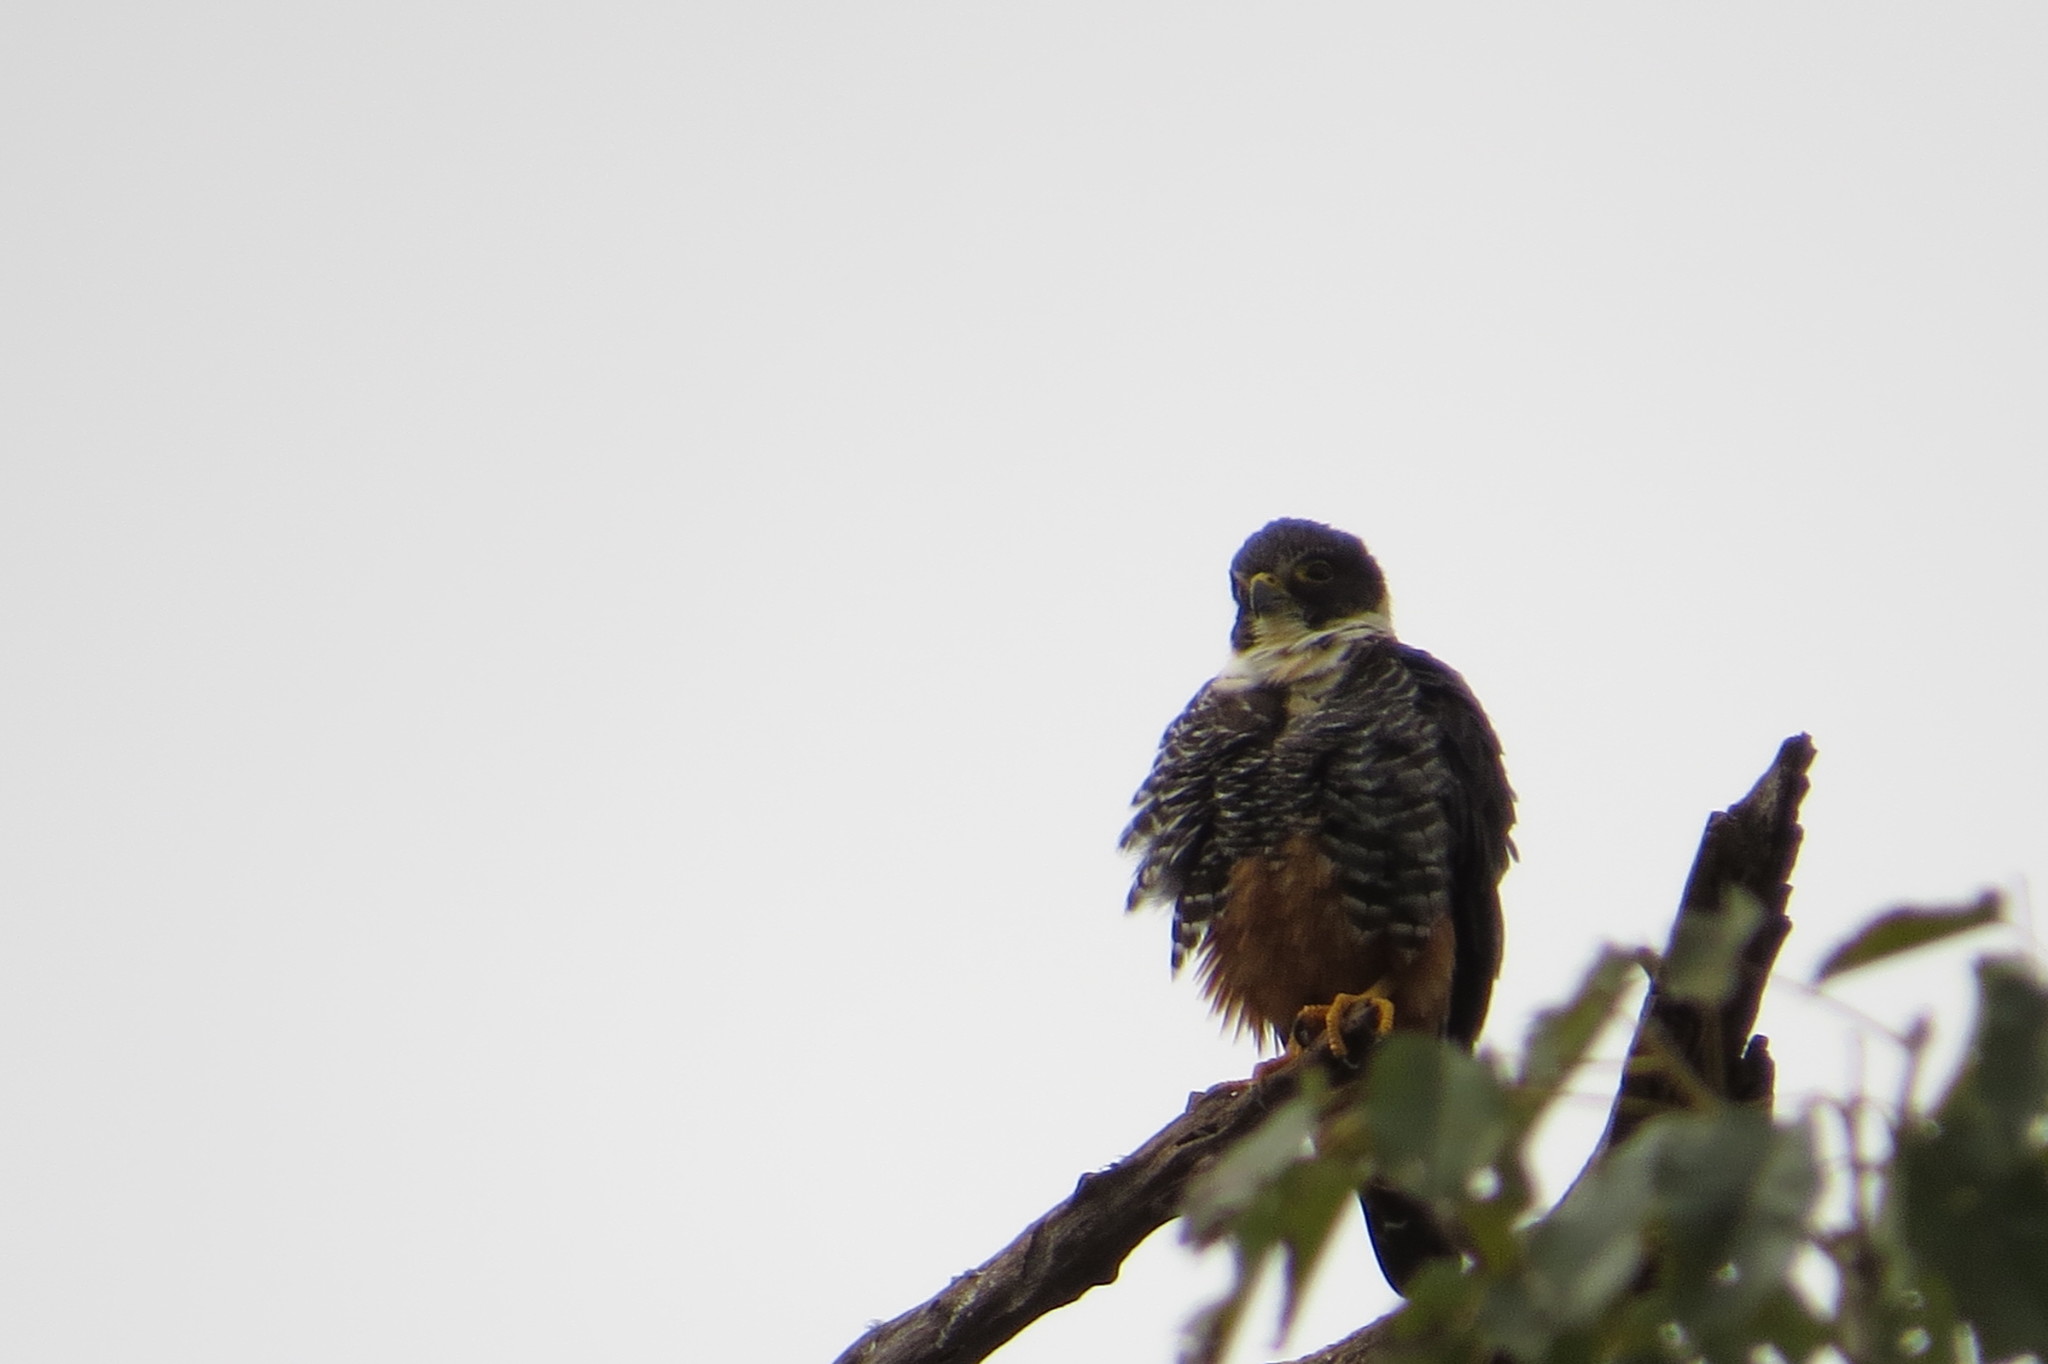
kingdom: Animalia
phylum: Chordata
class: Aves
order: Falconiformes
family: Falconidae
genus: Falco
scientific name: Falco rufigularis
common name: Bat falcon
